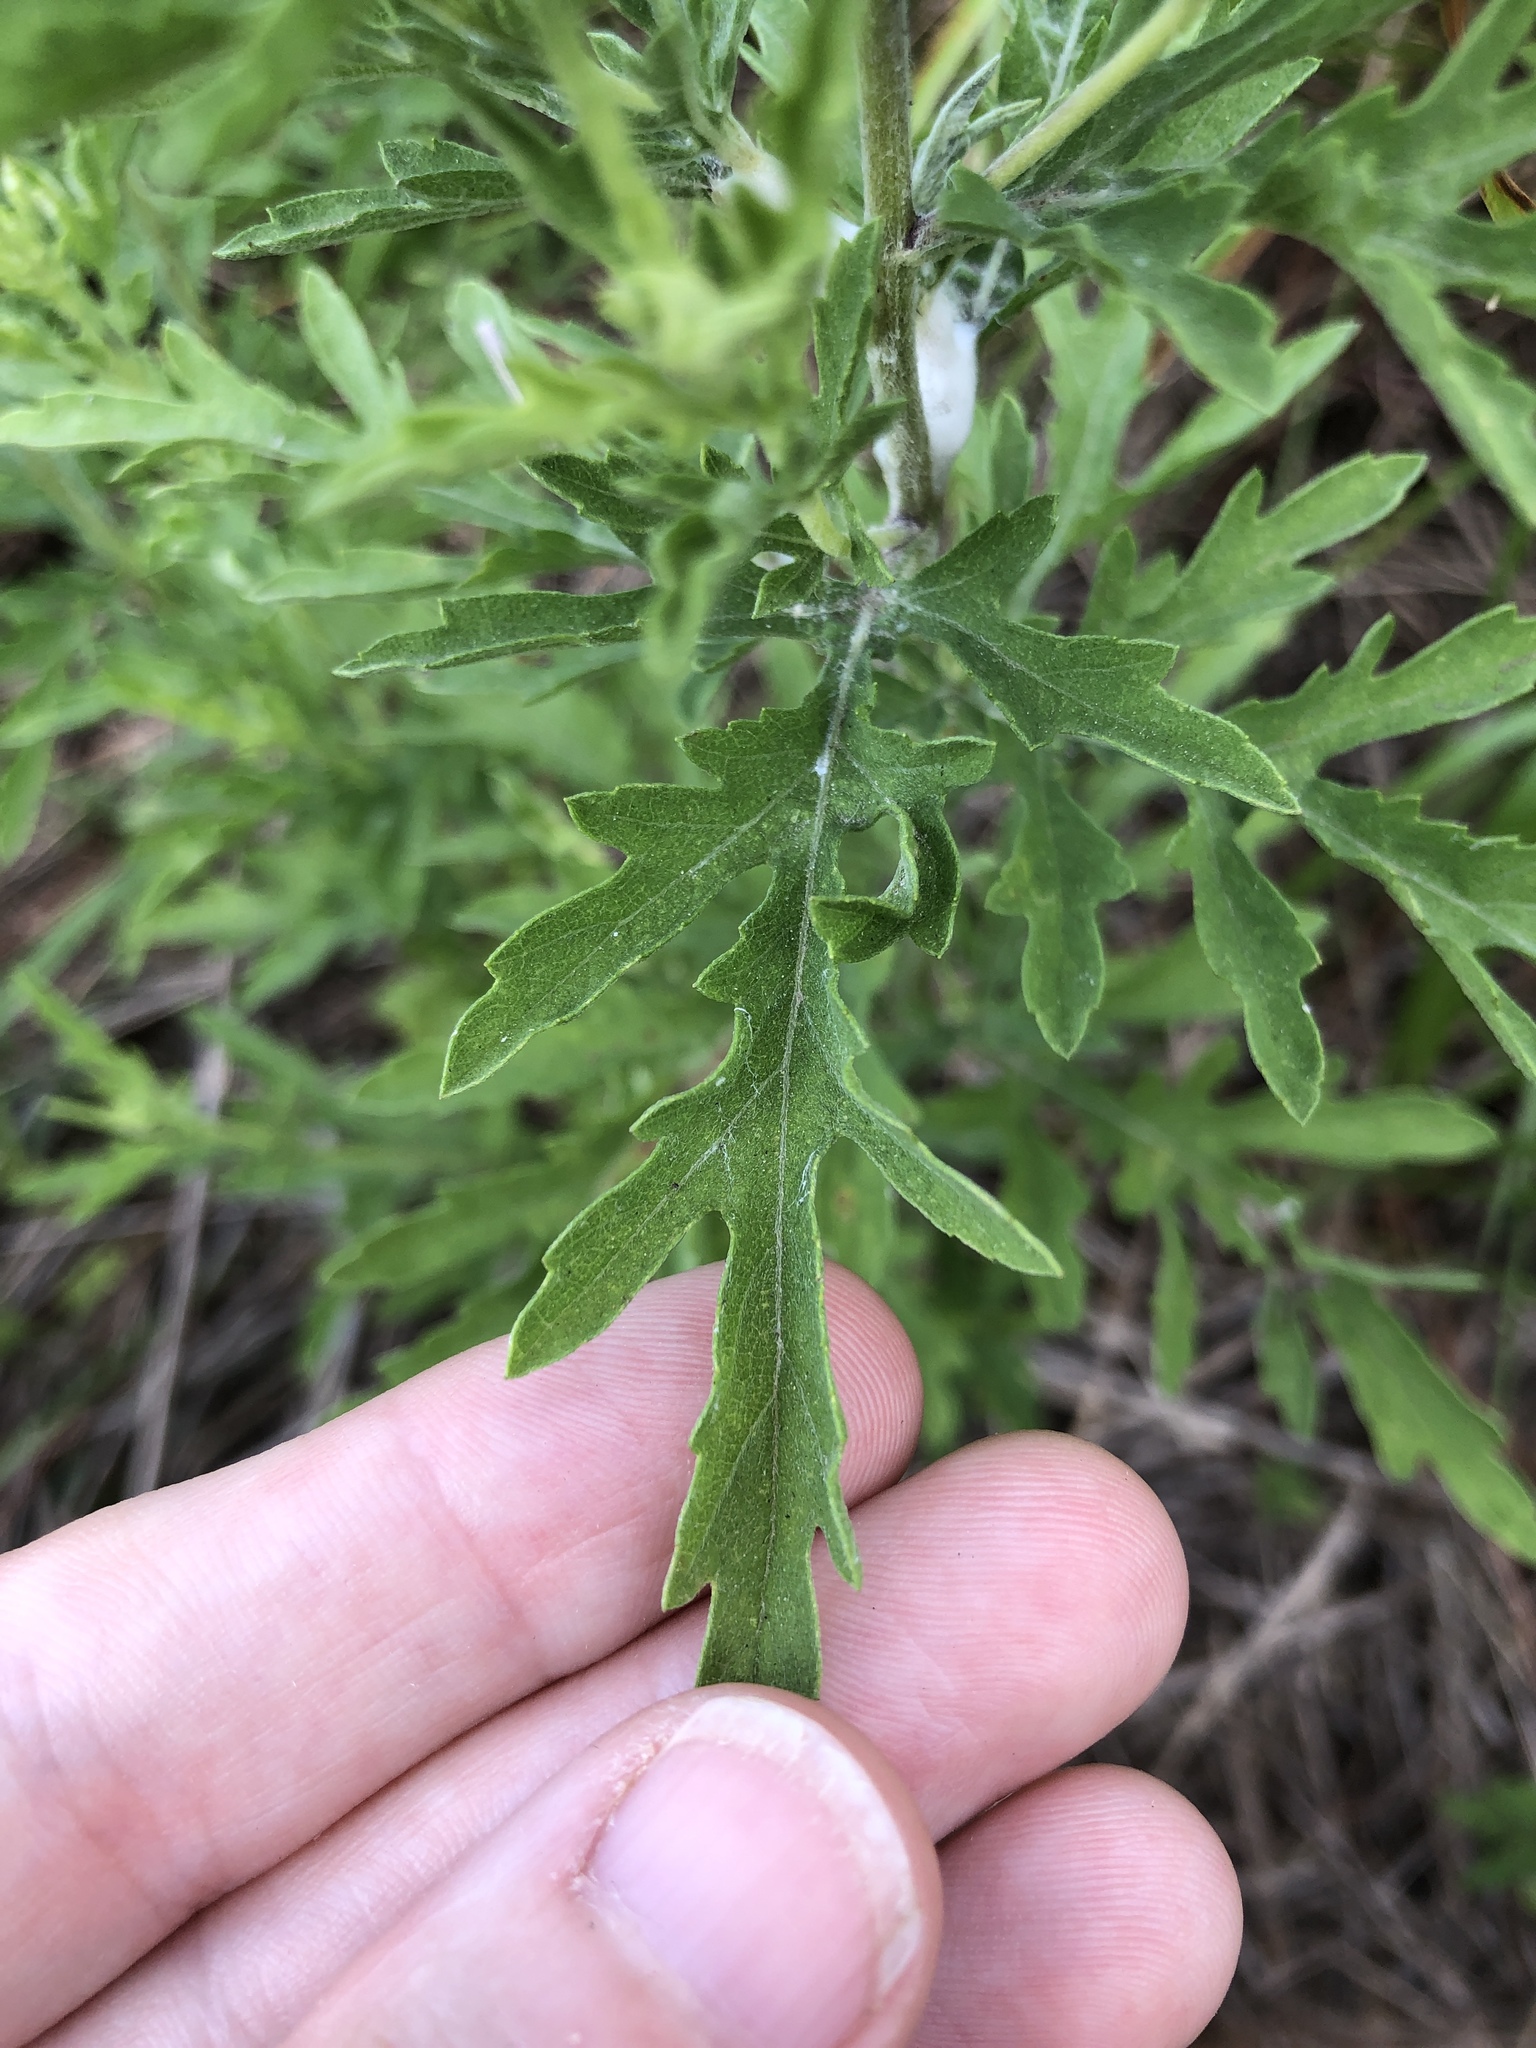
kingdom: Plantae
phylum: Tracheophyta
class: Magnoliopsida
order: Asterales
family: Asteraceae
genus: Ambrosia
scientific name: Ambrosia psilostachya
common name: Perennial ragweed
